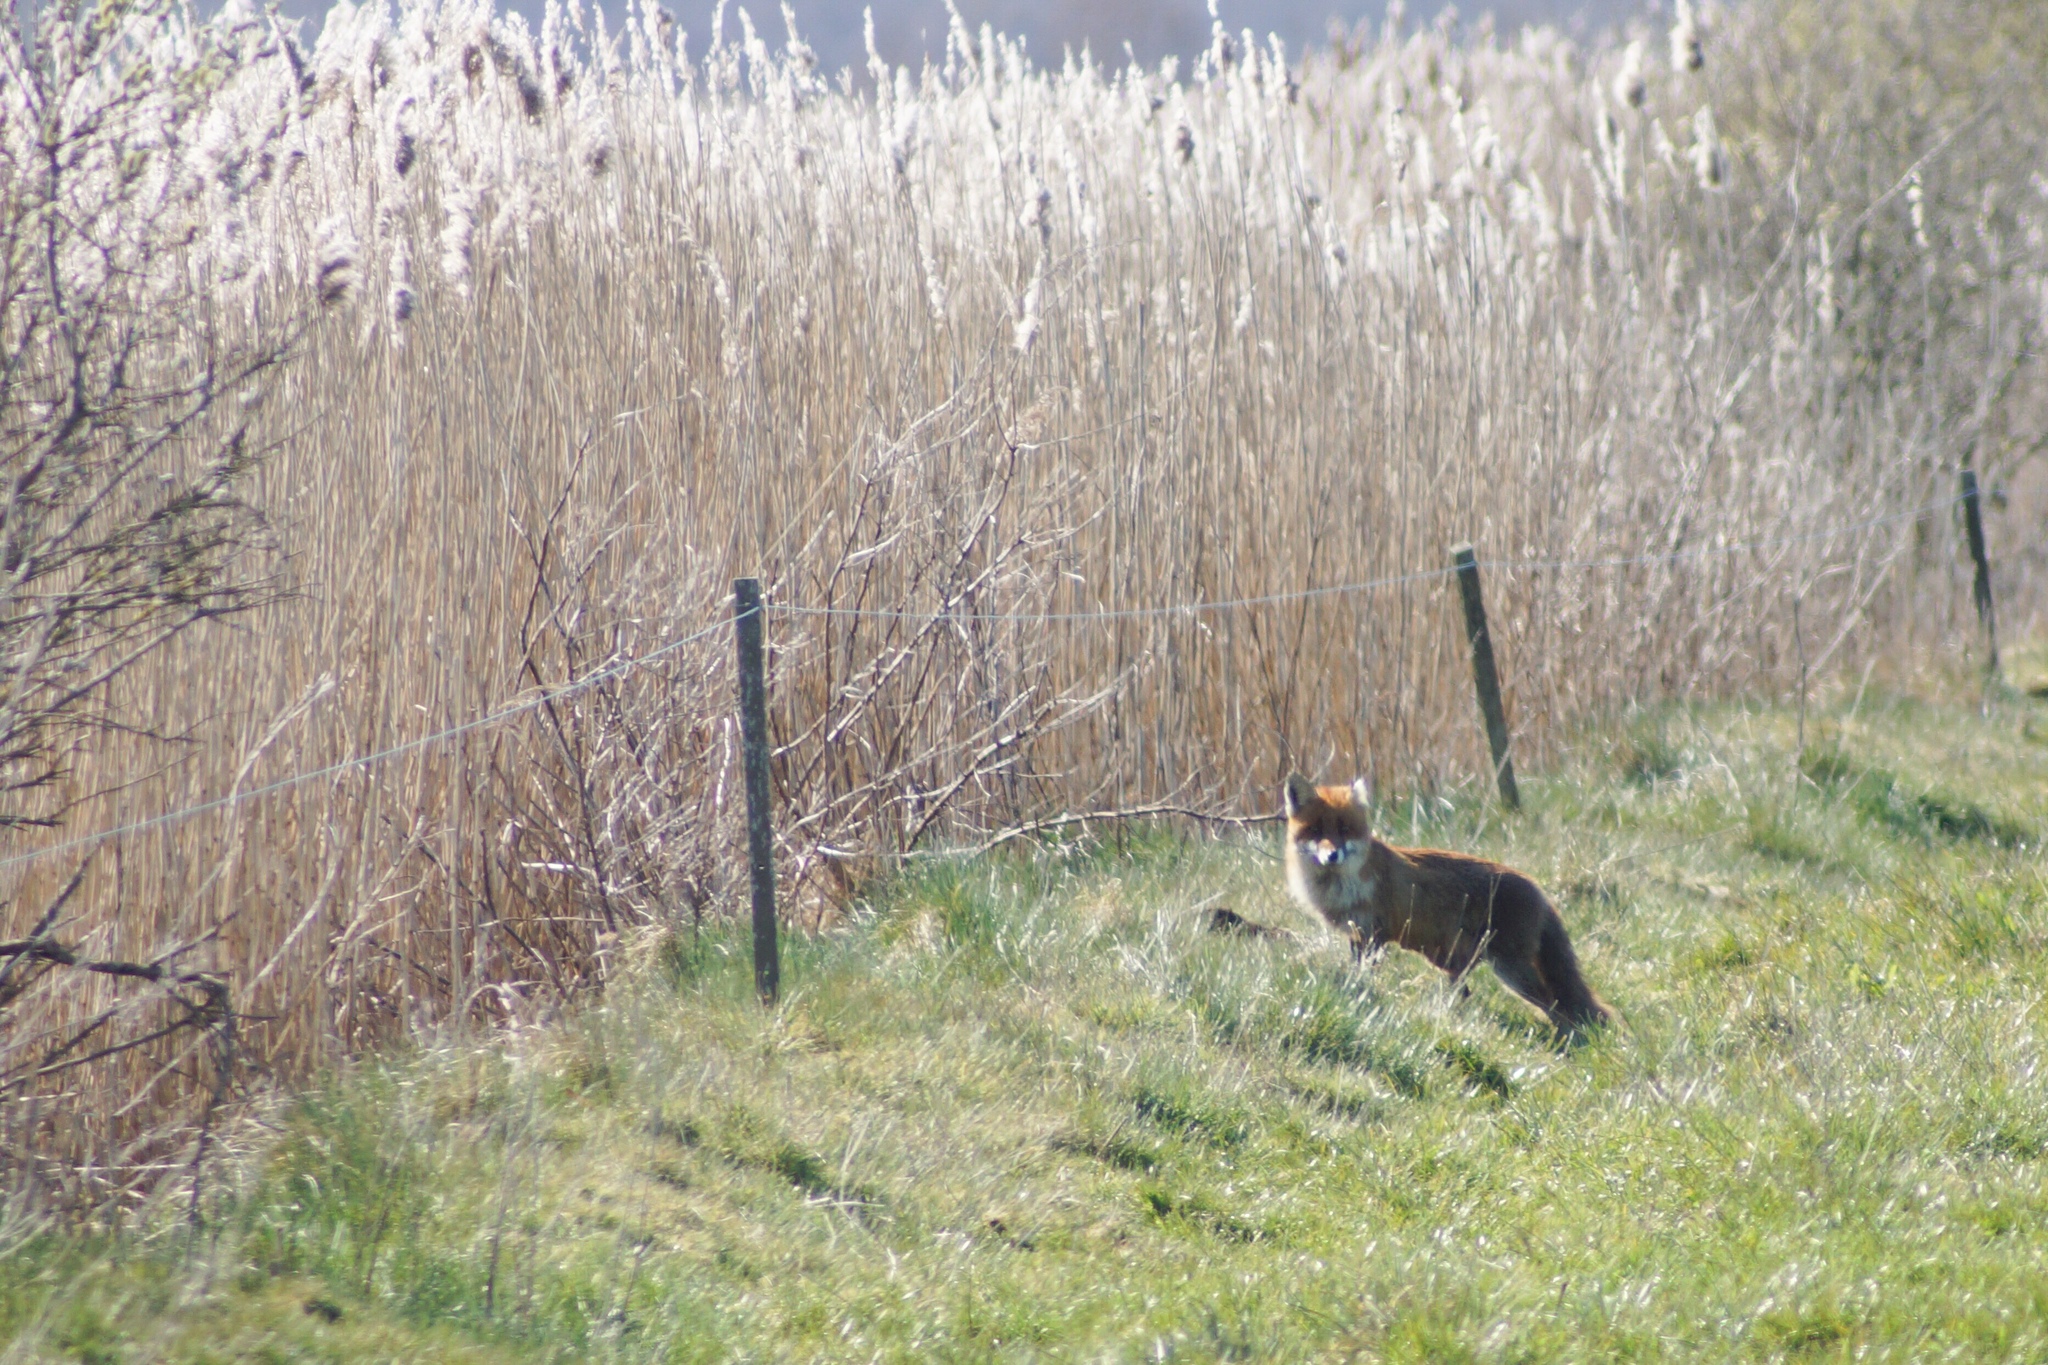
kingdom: Animalia
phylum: Chordata
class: Mammalia
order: Carnivora
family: Canidae
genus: Vulpes
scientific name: Vulpes vulpes
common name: Red fox
